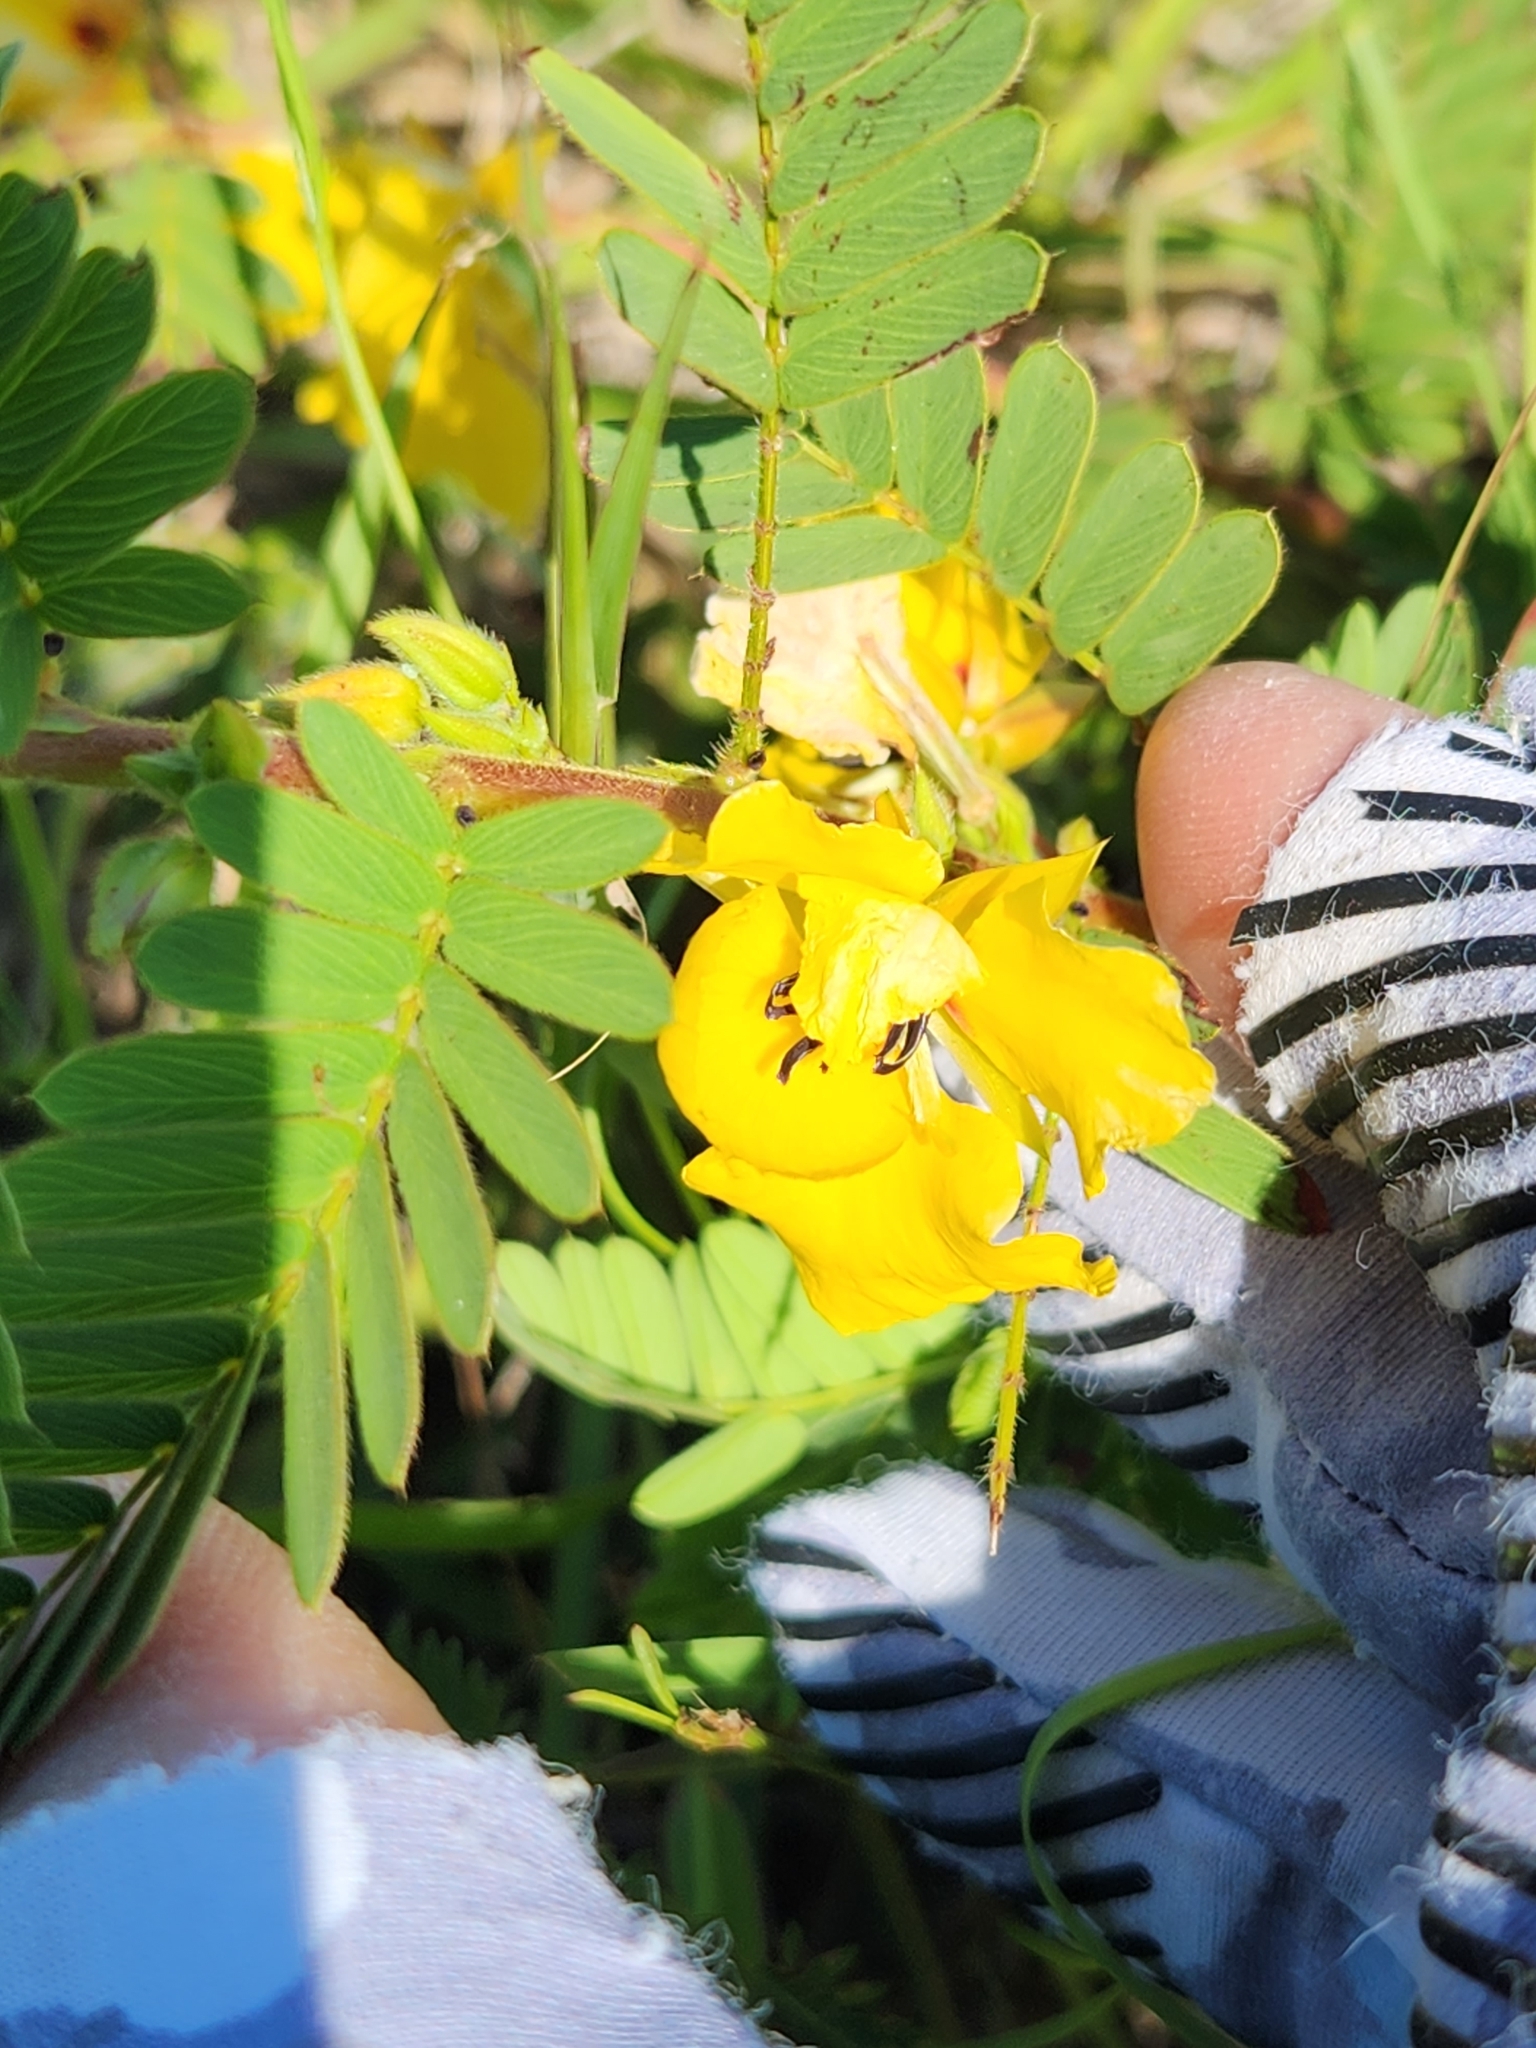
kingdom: Plantae
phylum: Tracheophyta
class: Magnoliopsida
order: Fabales
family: Fabaceae
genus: Chamaecrista
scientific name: Chamaecrista fasciculata
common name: Golden cassia
